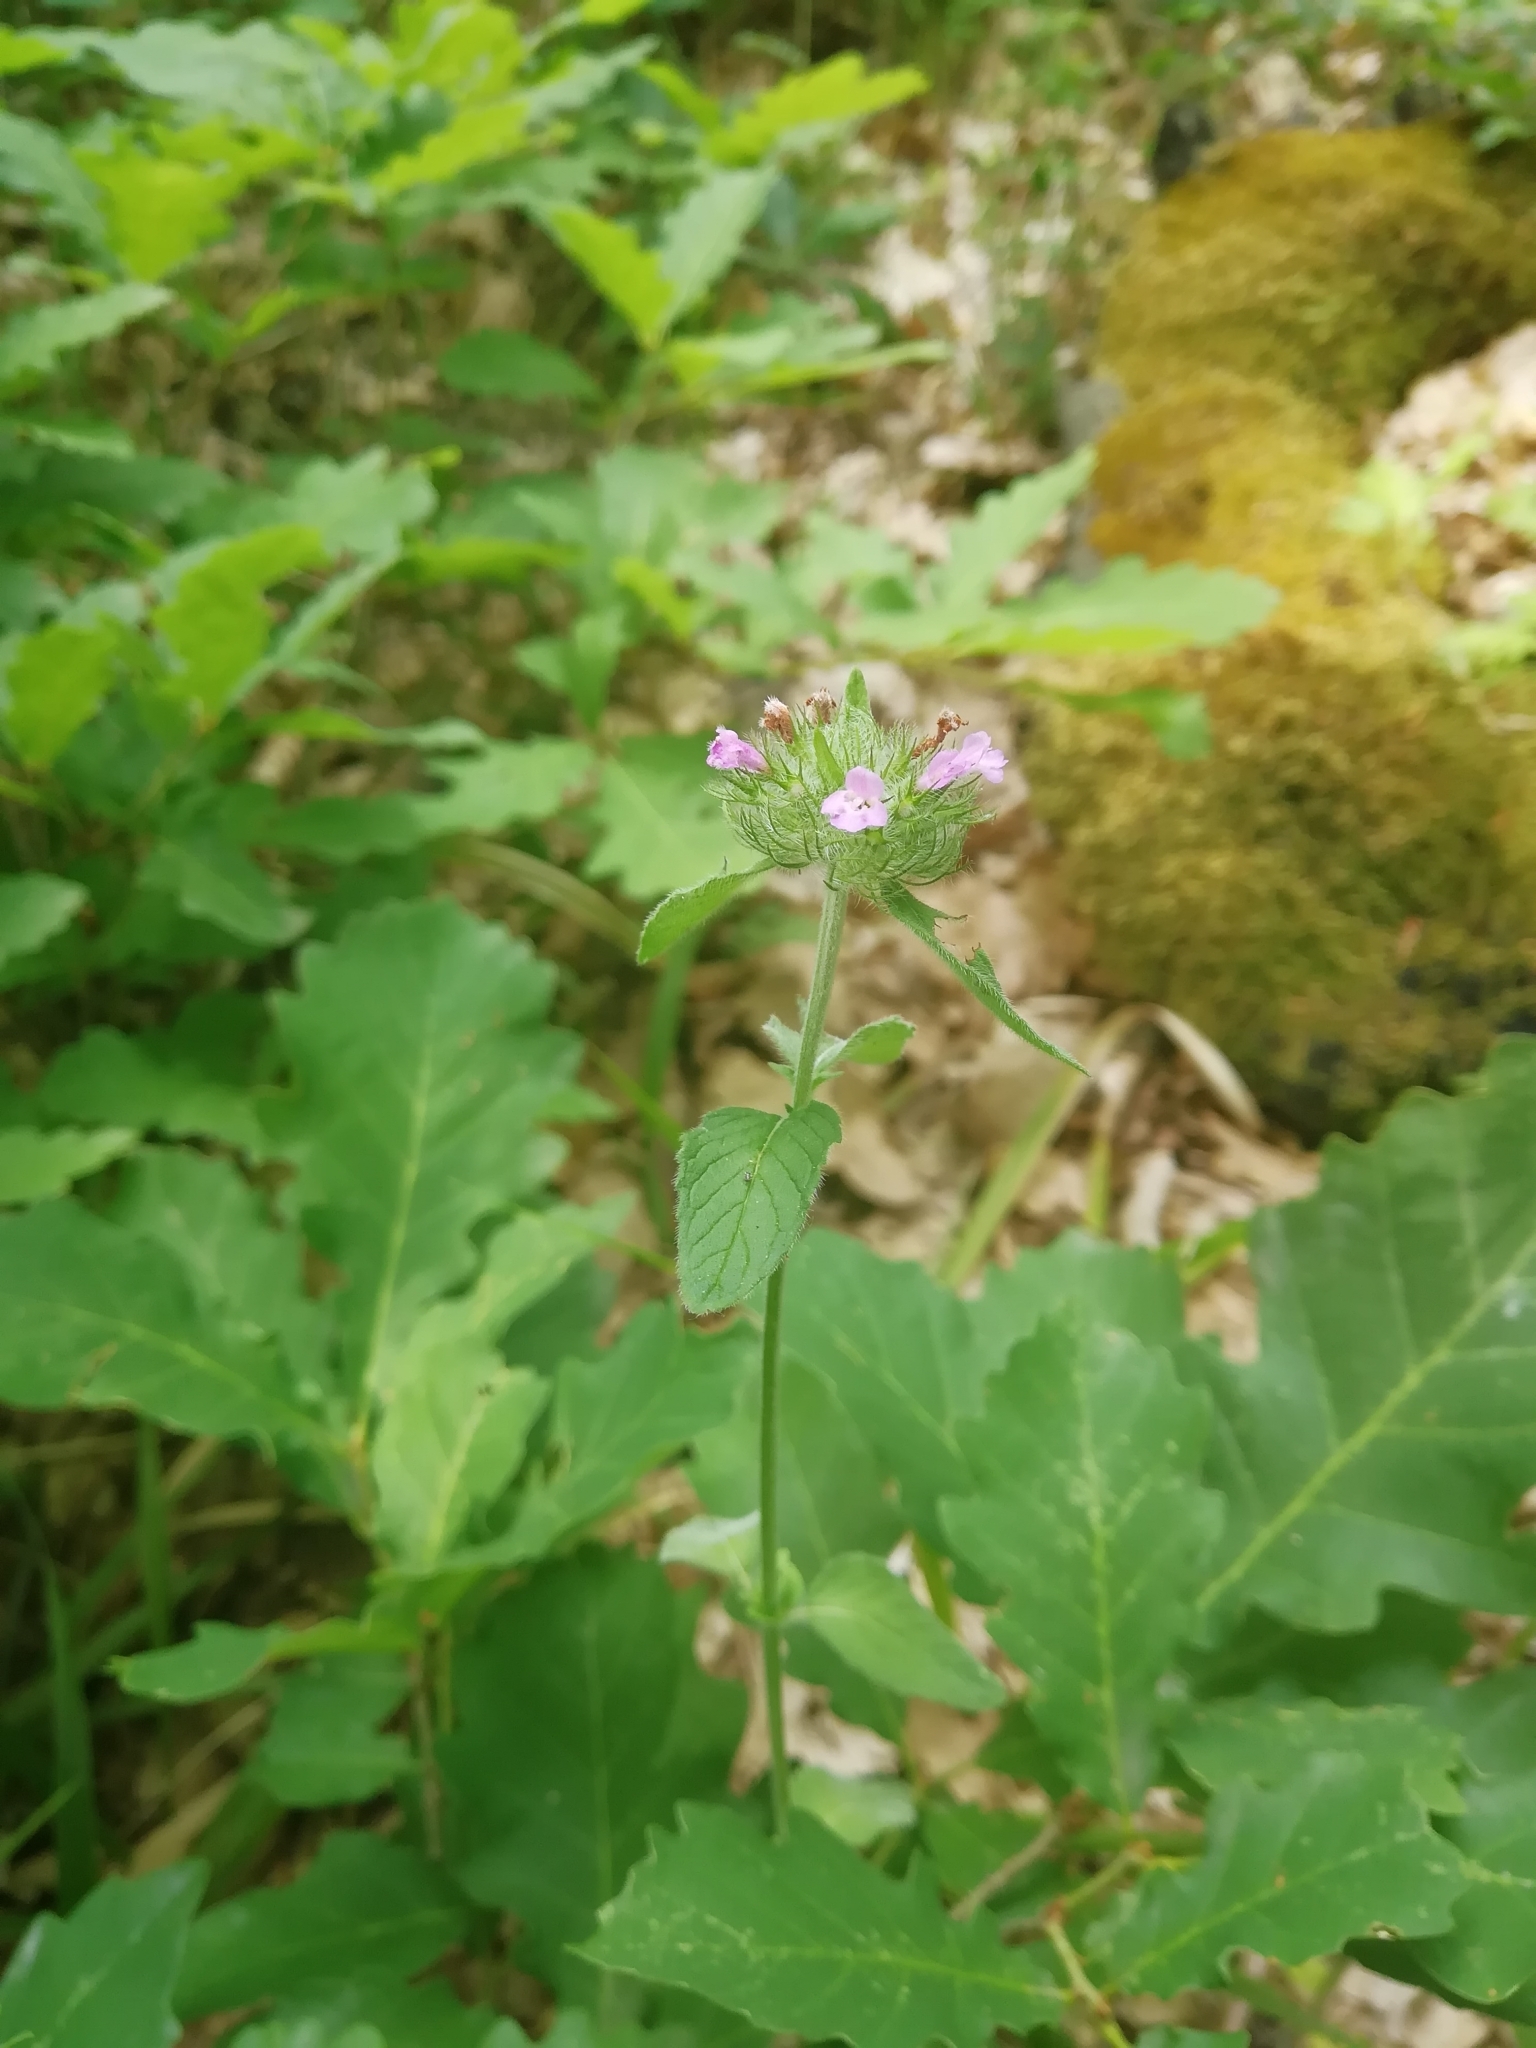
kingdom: Plantae
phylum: Tracheophyta
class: Magnoliopsida
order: Lamiales
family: Lamiaceae
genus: Clinopodium
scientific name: Clinopodium caucasicum
